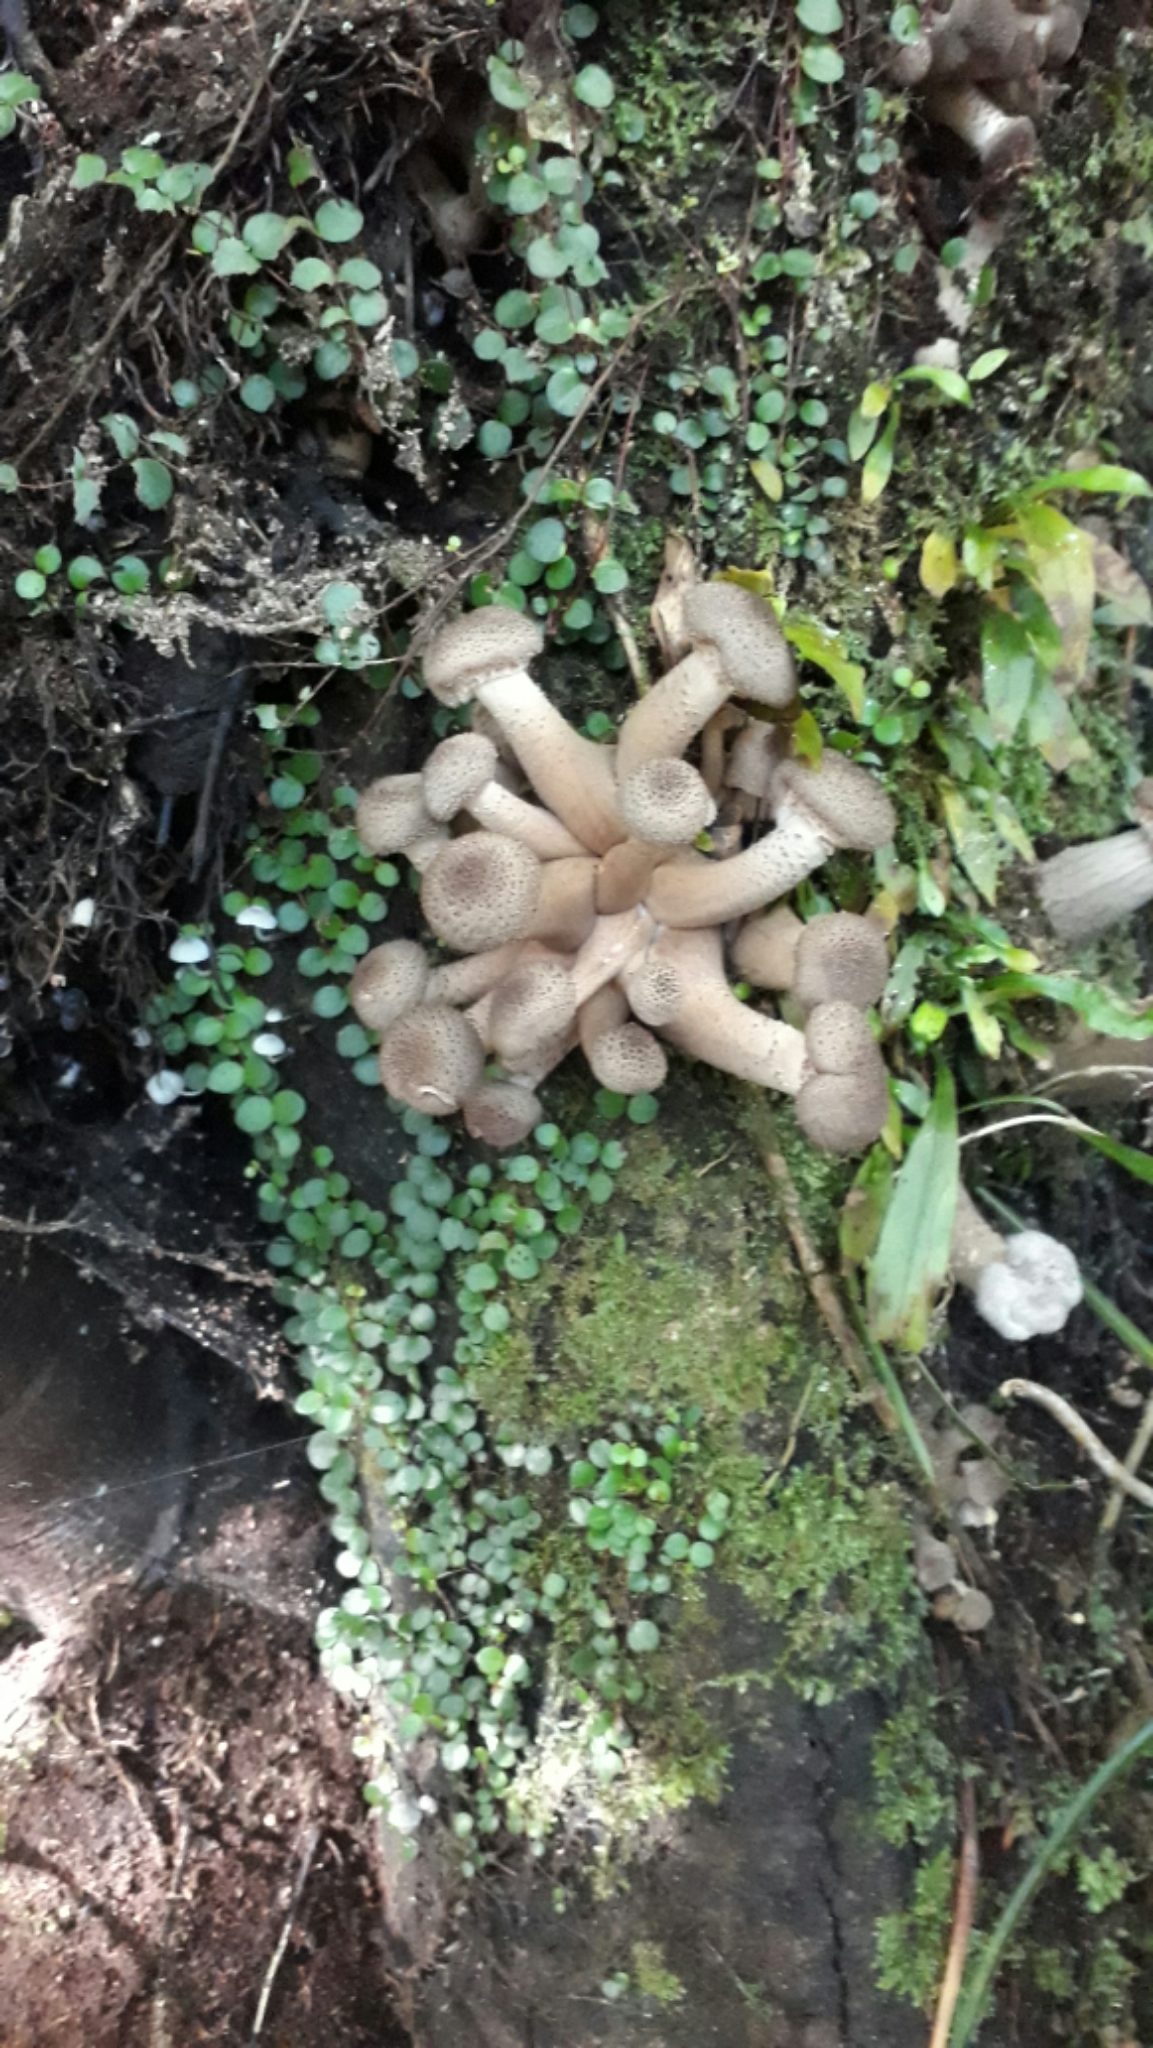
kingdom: Fungi
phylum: Basidiomycota
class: Agaricomycetes
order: Agaricales
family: Physalacriaceae
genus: Armillaria
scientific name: Armillaria novae-zelandiae
